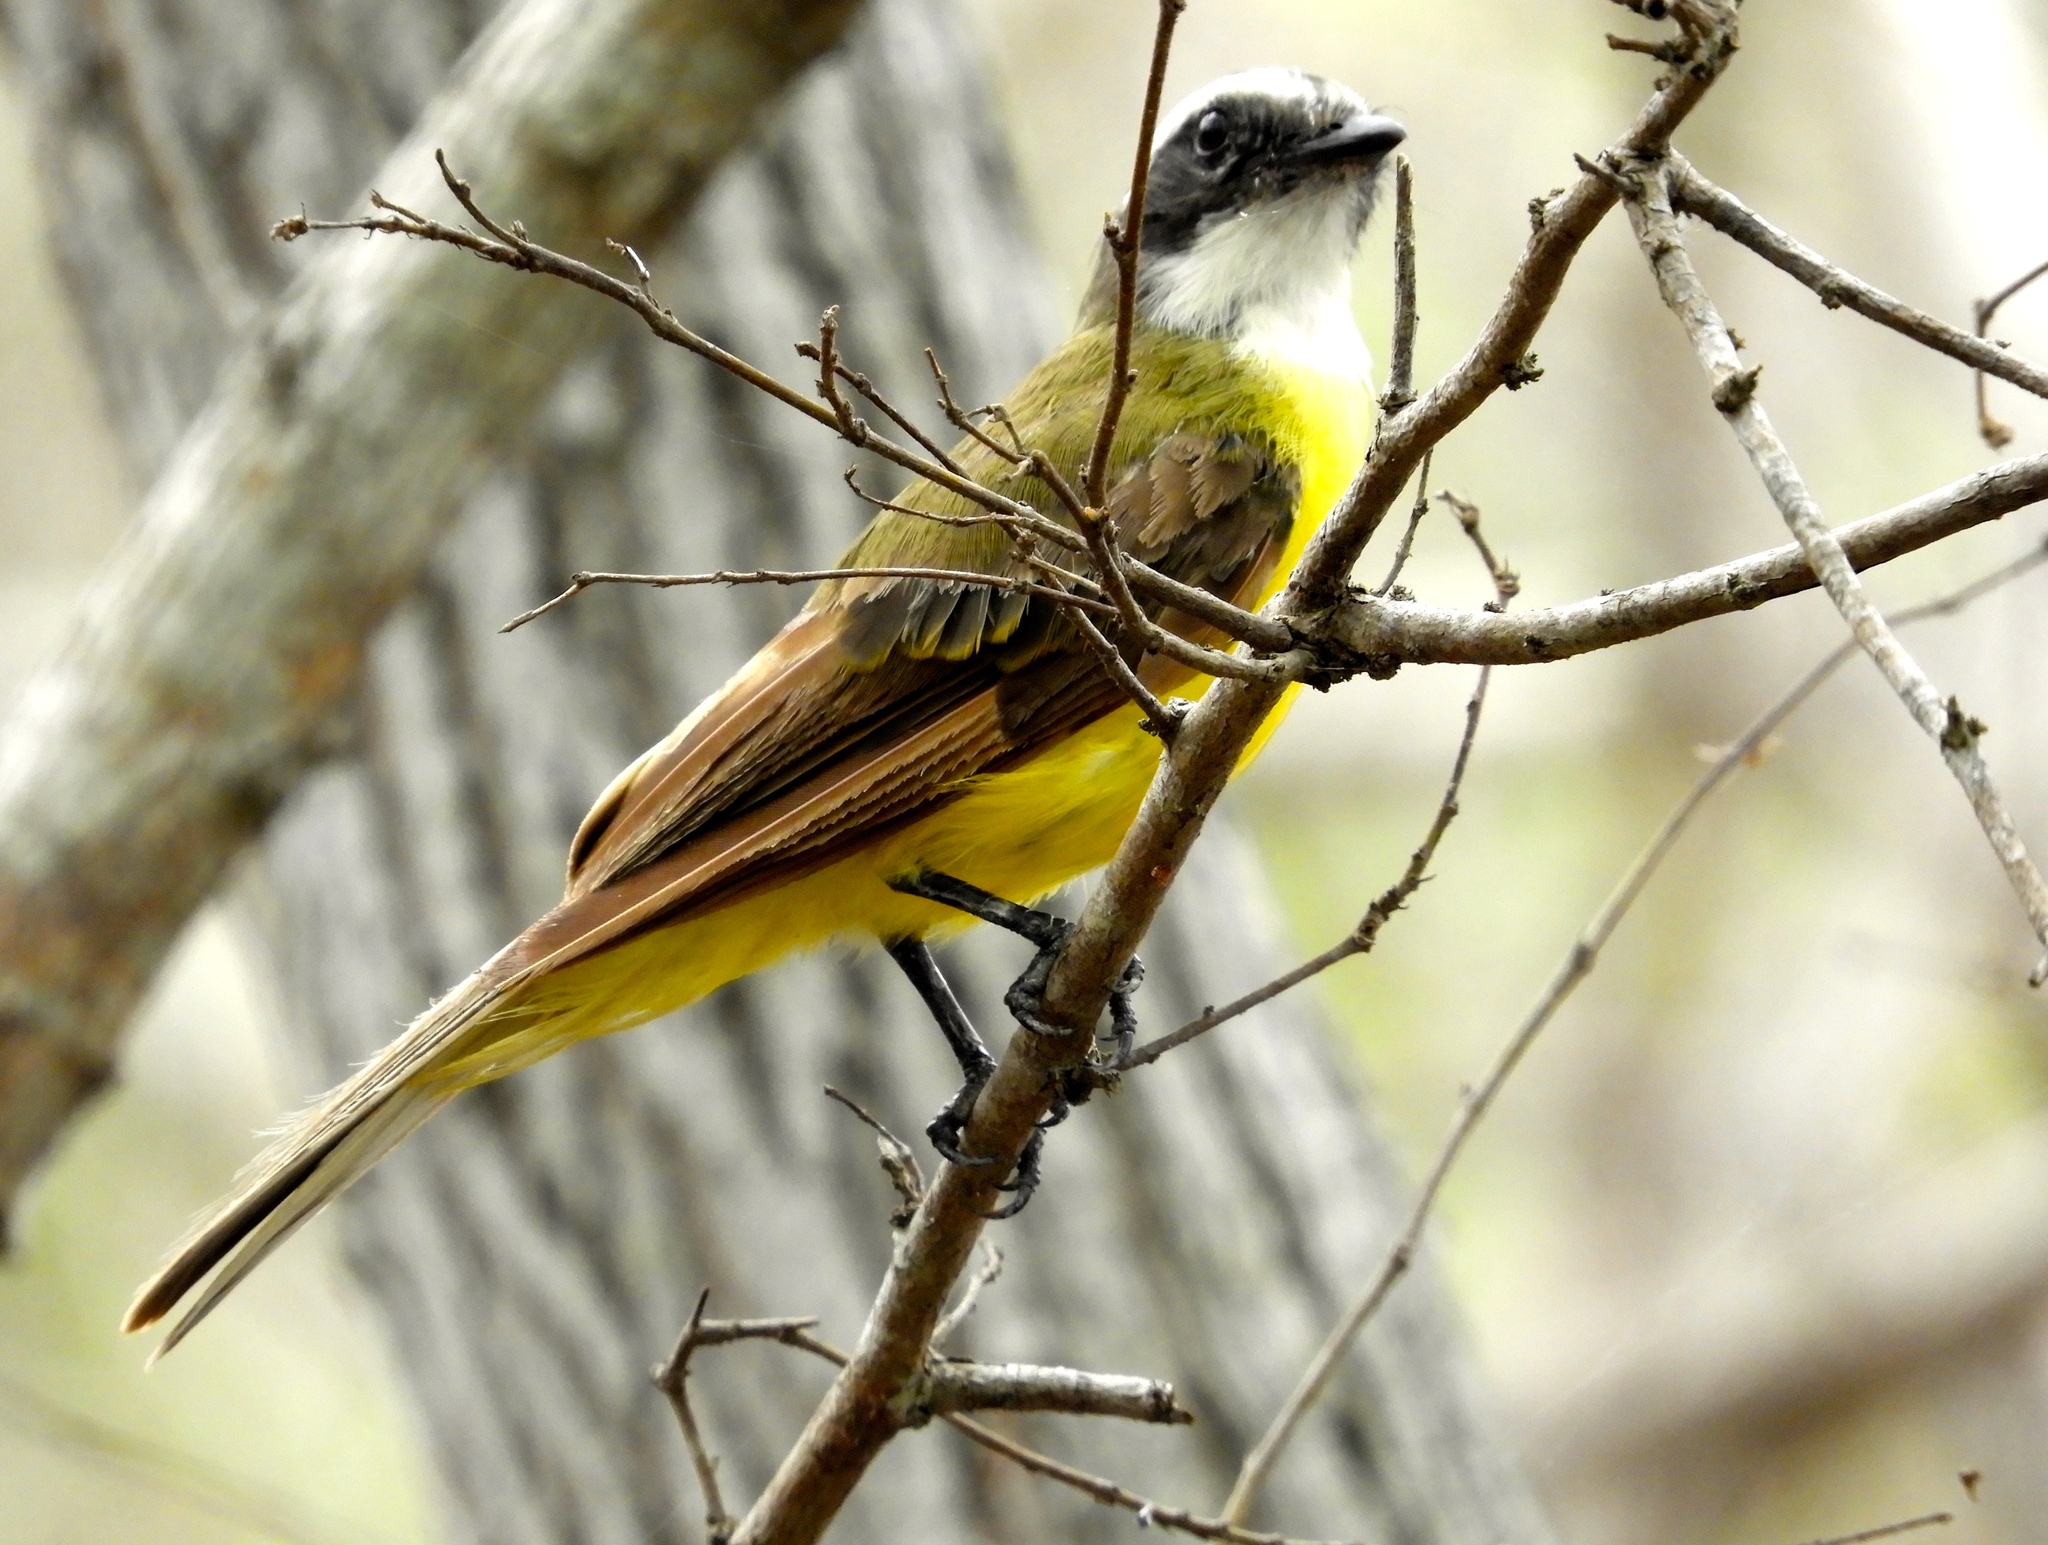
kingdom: Animalia
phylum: Chordata
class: Aves
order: Passeriformes
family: Tyrannidae
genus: Myiozetetes
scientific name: Myiozetetes similis
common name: Social flycatcher
